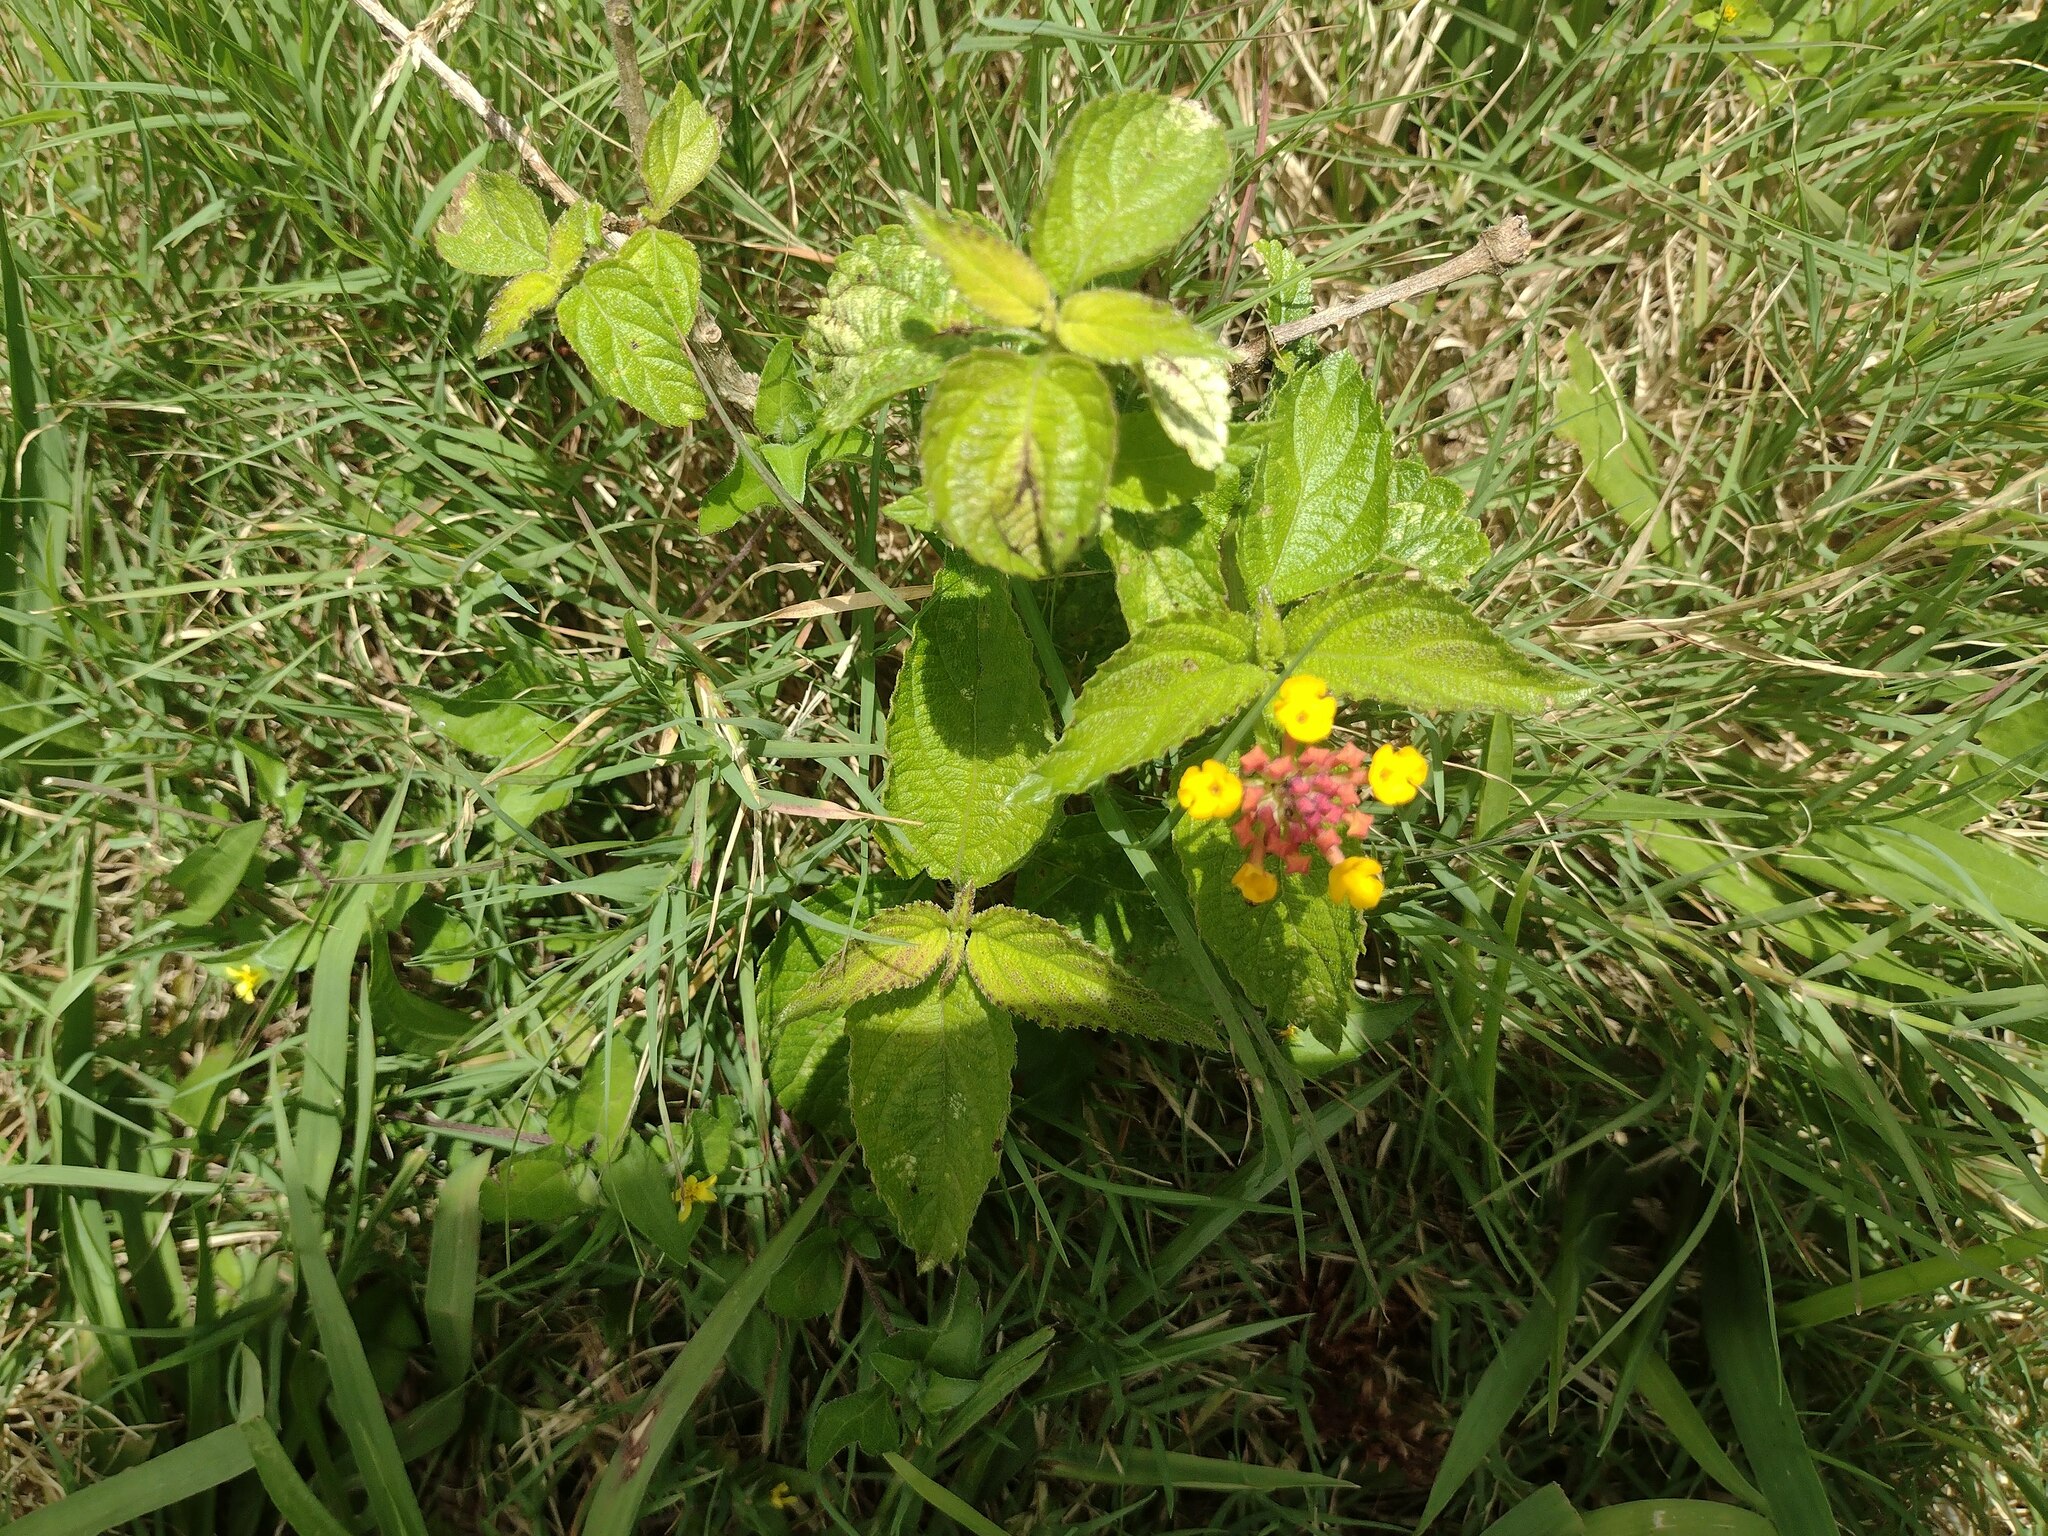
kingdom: Plantae
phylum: Tracheophyta
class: Magnoliopsida
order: Lamiales
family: Verbenaceae
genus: Lantana
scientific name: Lantana camara
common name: Lantana
